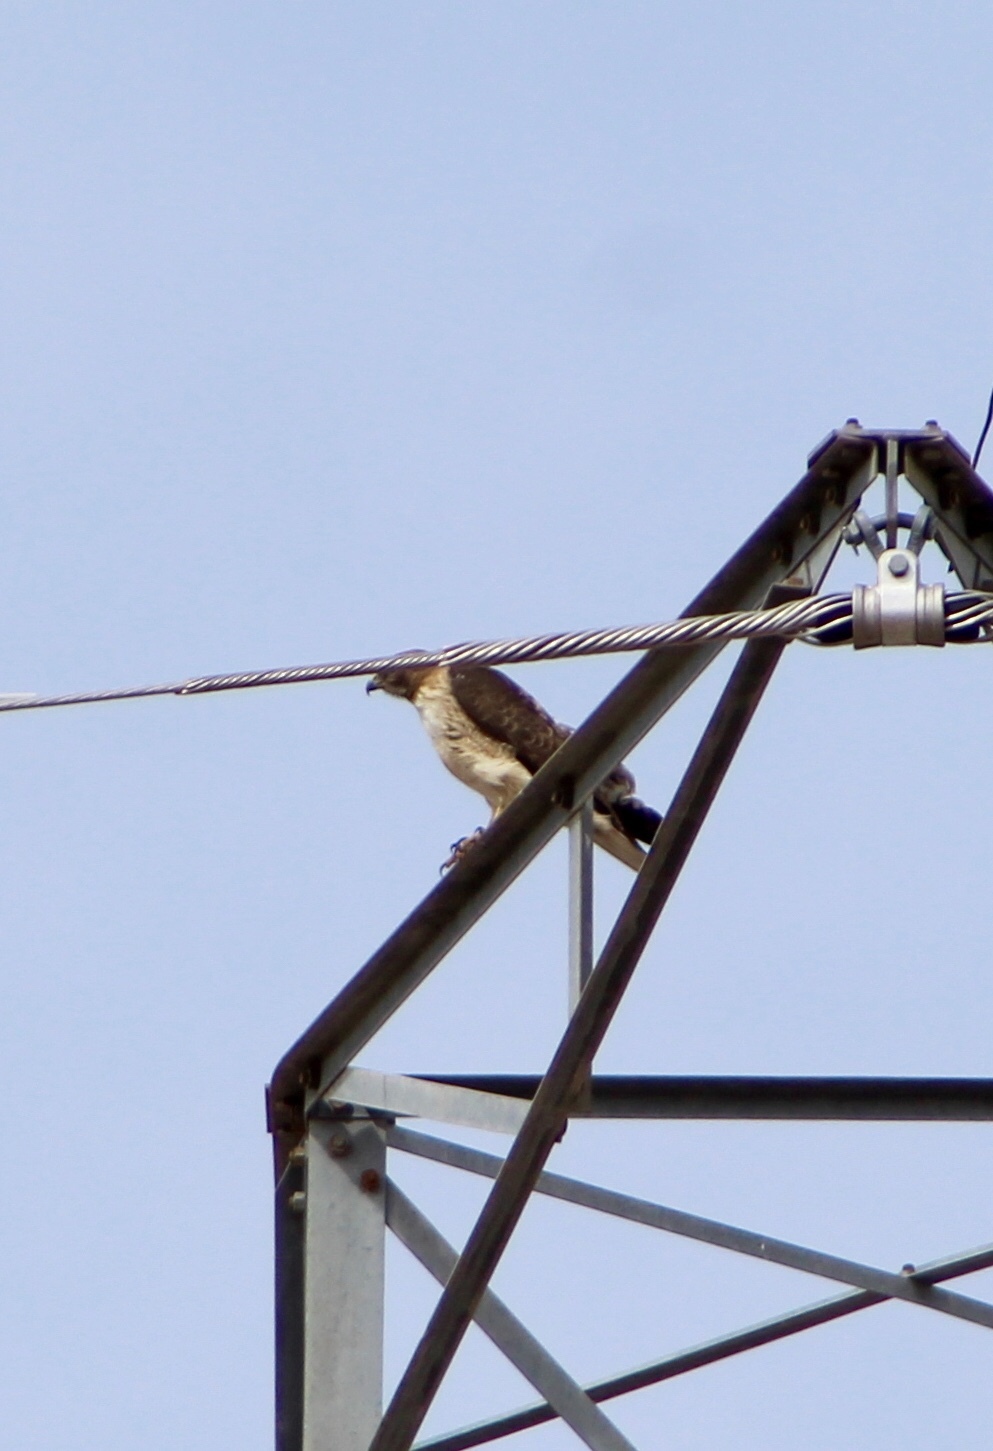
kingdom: Animalia
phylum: Chordata
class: Aves
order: Accipitriformes
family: Accipitridae
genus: Buteo
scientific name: Buteo jamaicensis
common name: Red-tailed hawk
